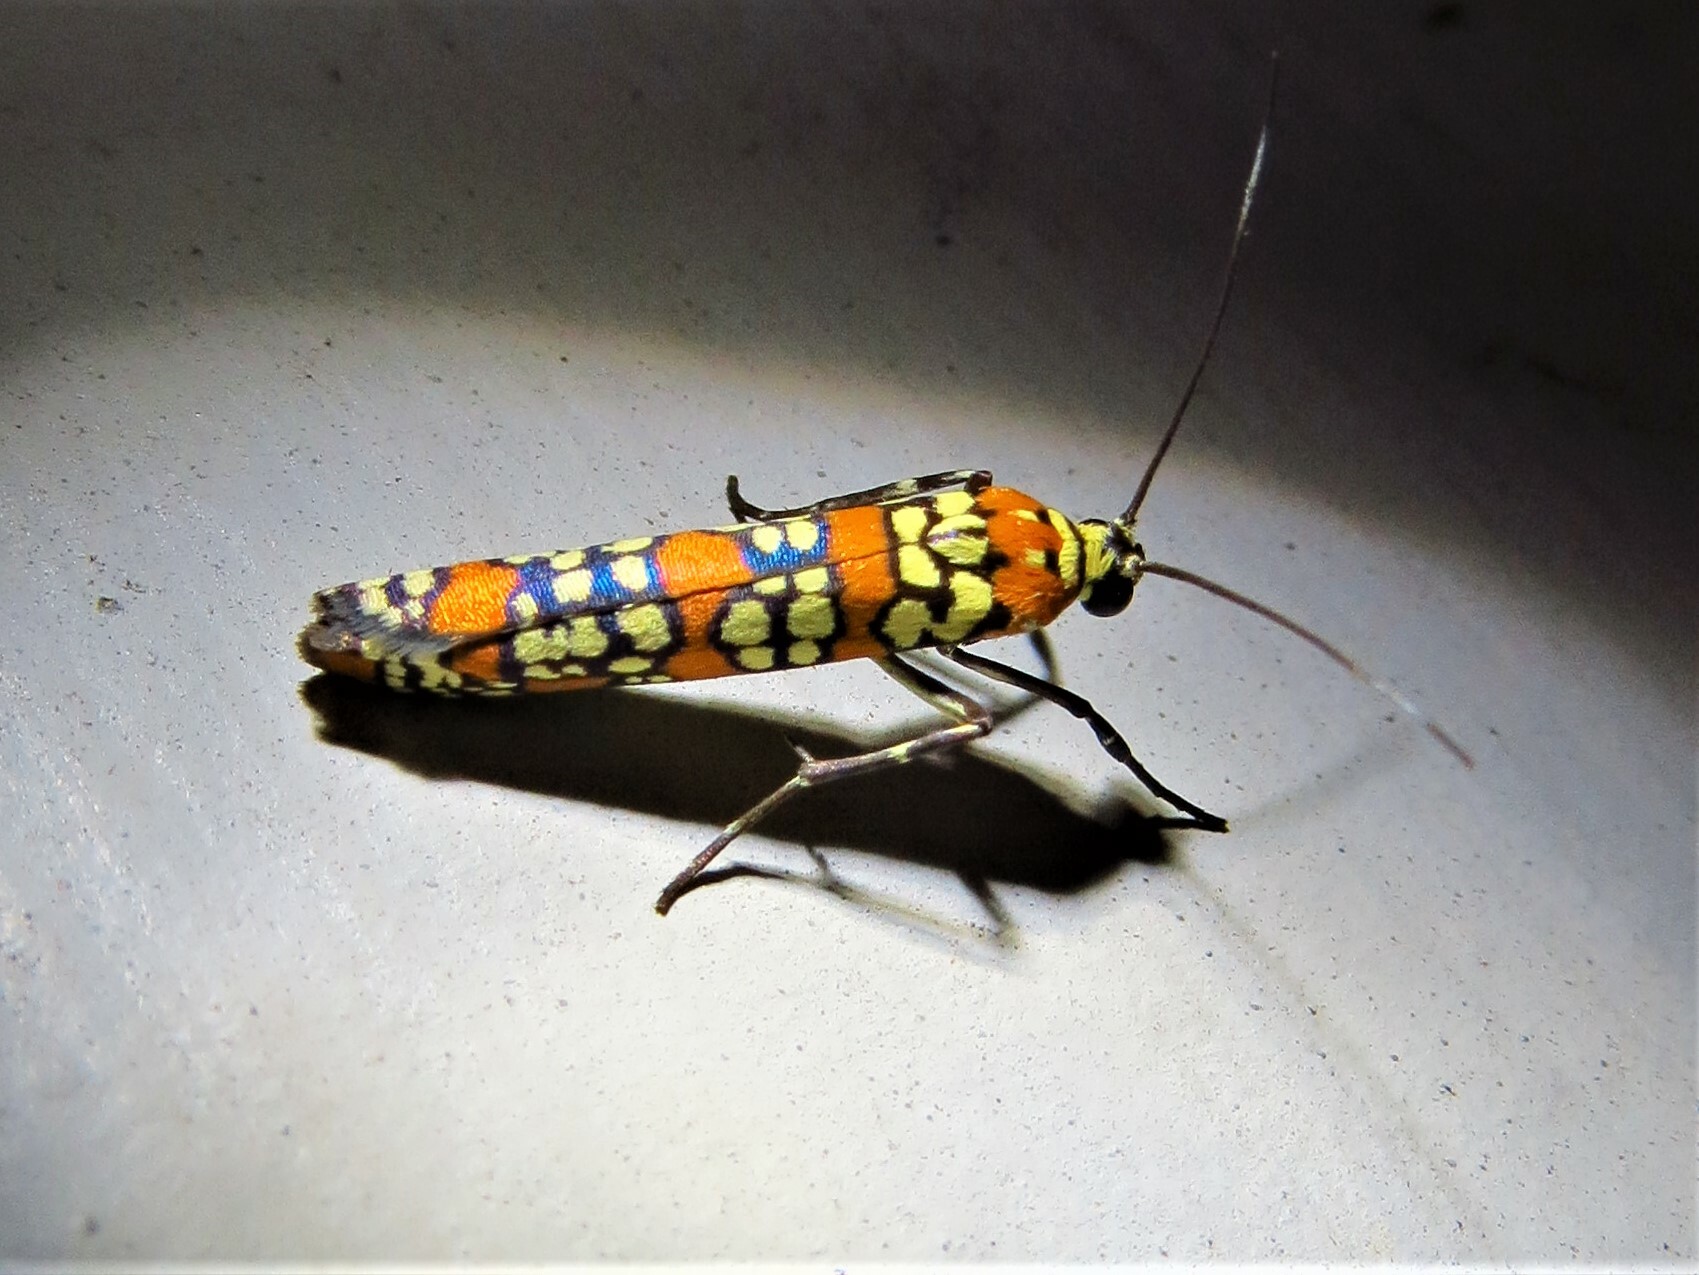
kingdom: Animalia
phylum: Arthropoda
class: Insecta
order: Lepidoptera
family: Attevidae
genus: Atteva
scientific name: Atteva punctella
